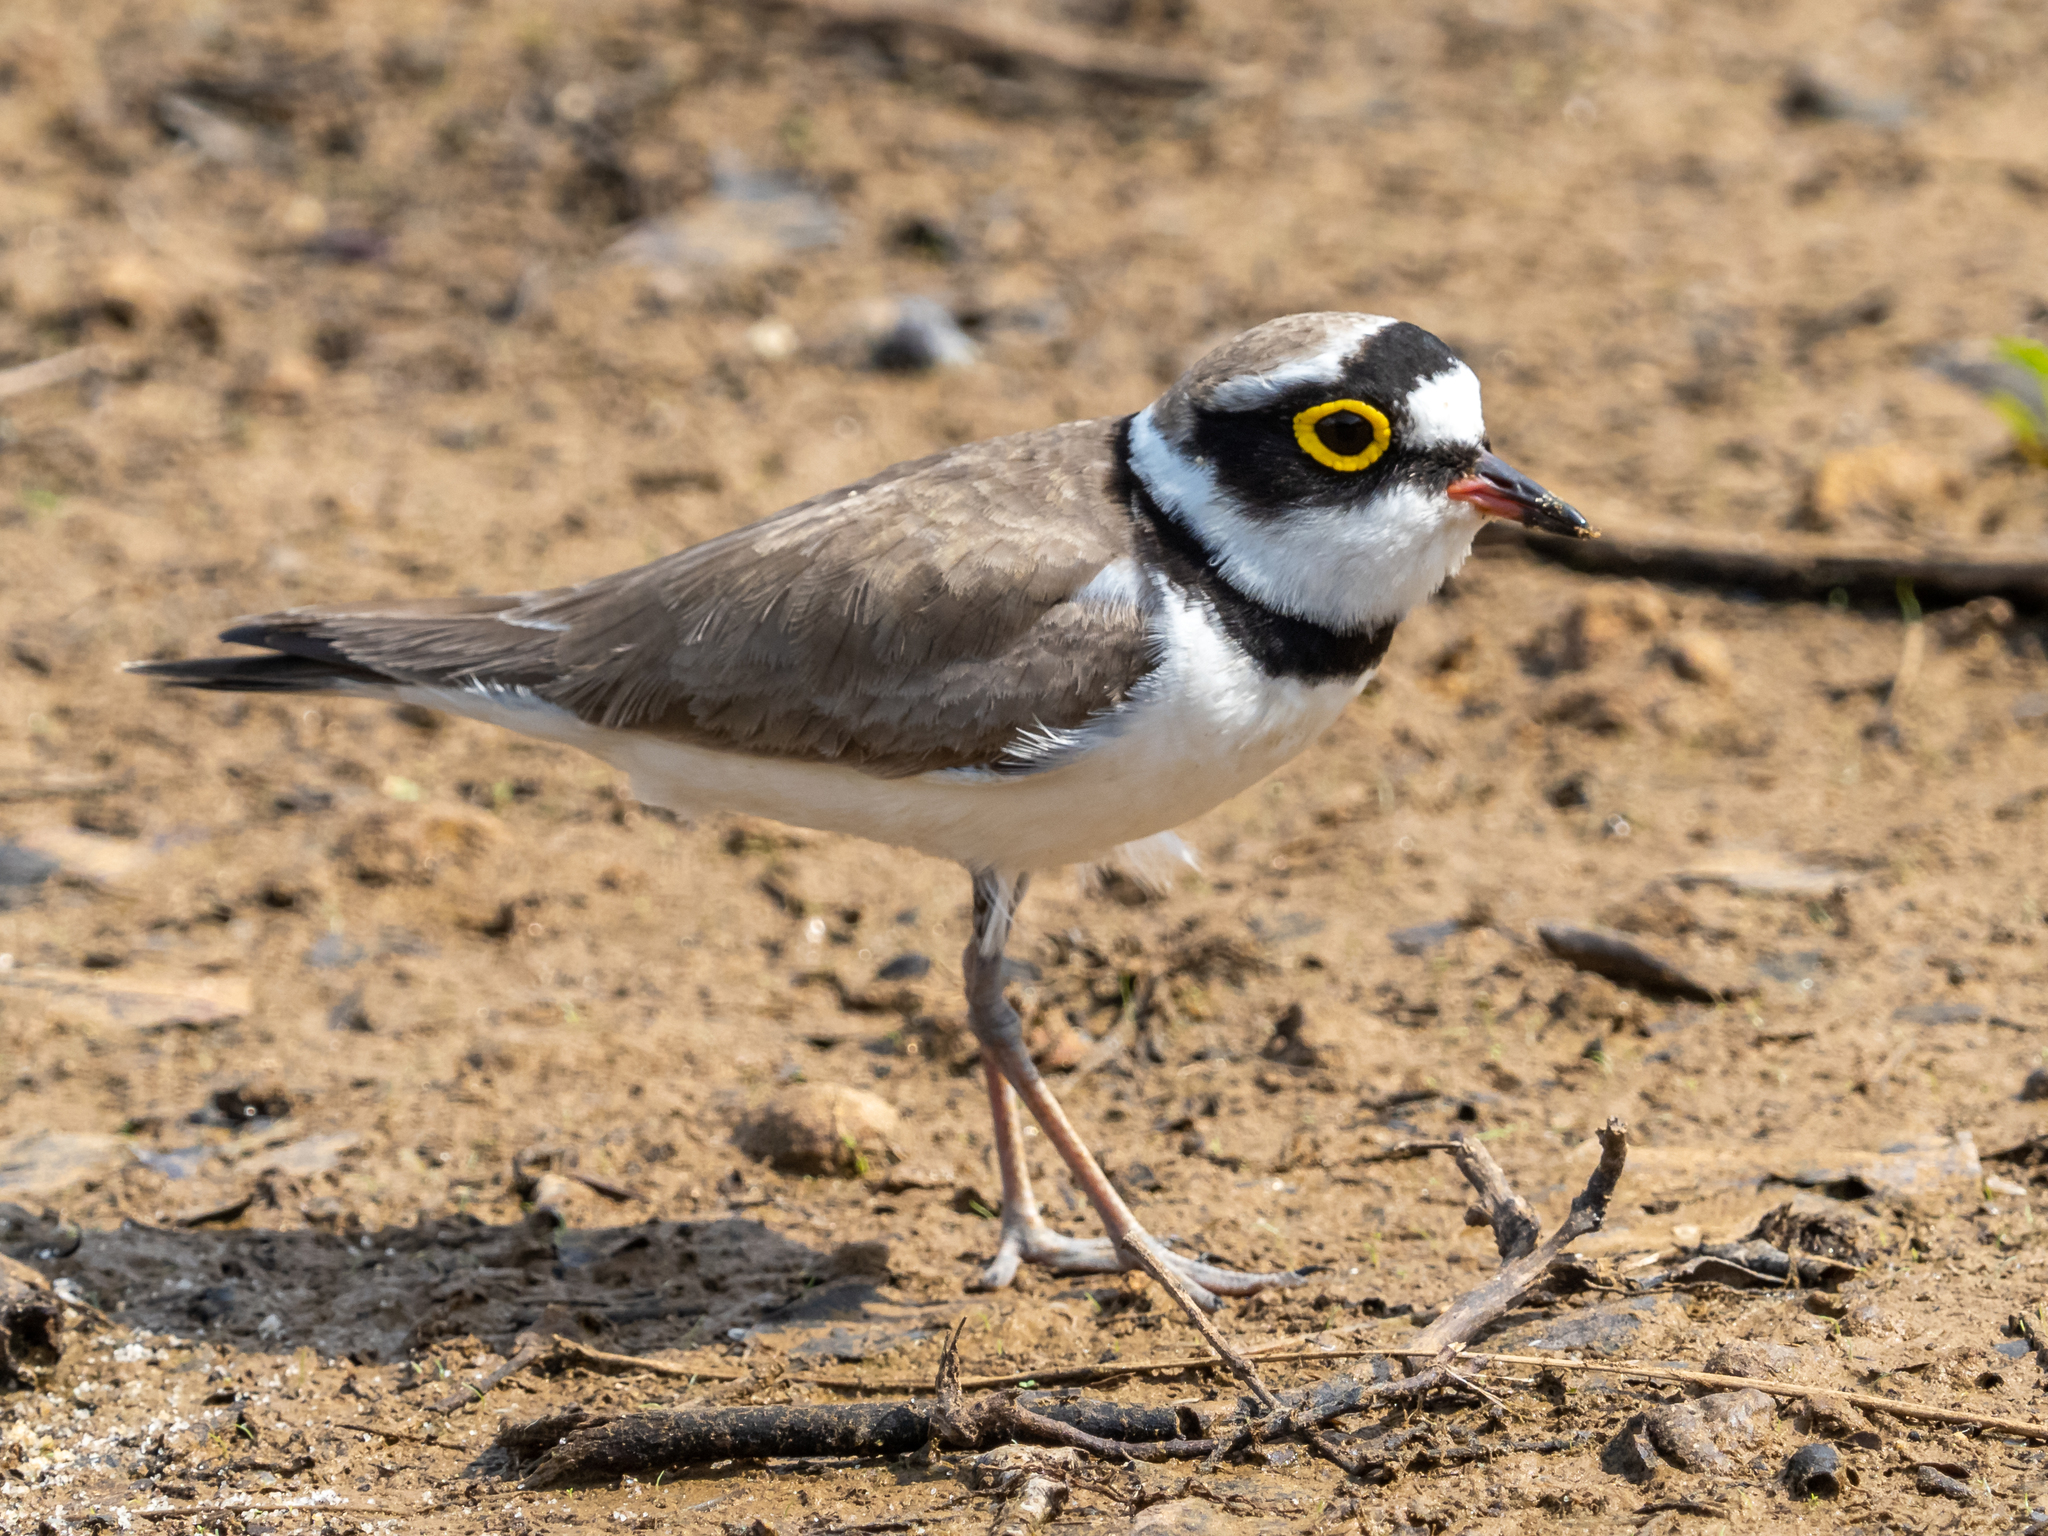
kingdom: Animalia
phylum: Chordata
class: Aves
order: Charadriiformes
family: Charadriidae
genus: Charadrius
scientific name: Charadrius dubius
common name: Little ringed plover
